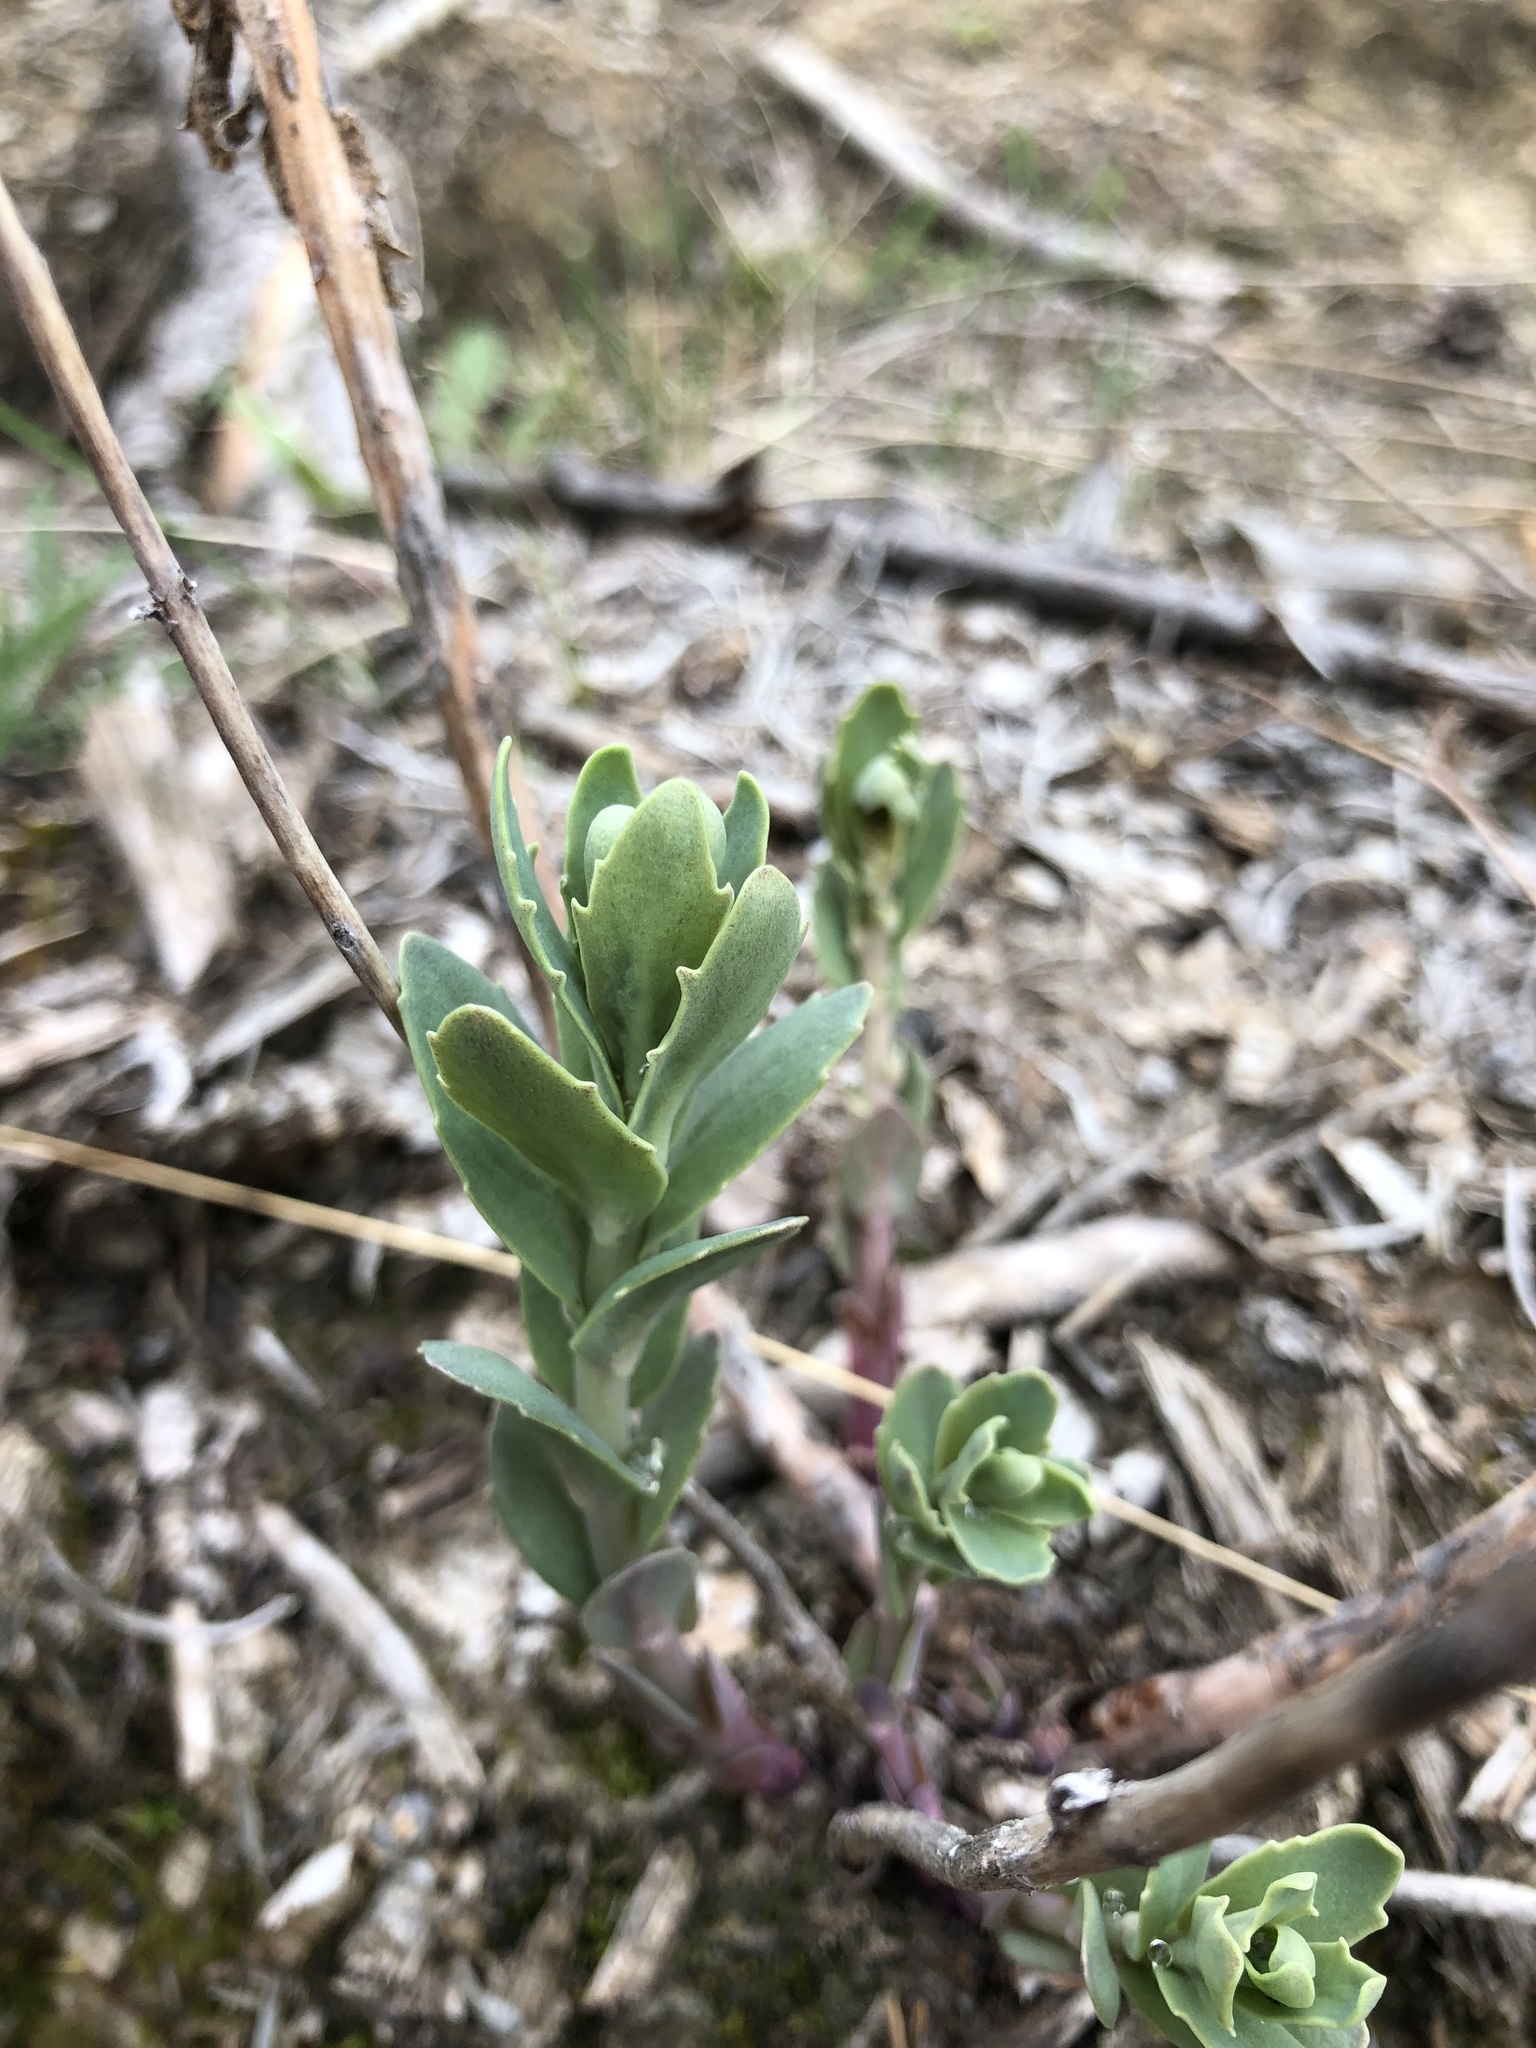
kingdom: Plantae
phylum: Tracheophyta
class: Magnoliopsida
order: Saxifragales
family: Crassulaceae
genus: Hylotelephium
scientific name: Hylotelephium telephium
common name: Live-forever
